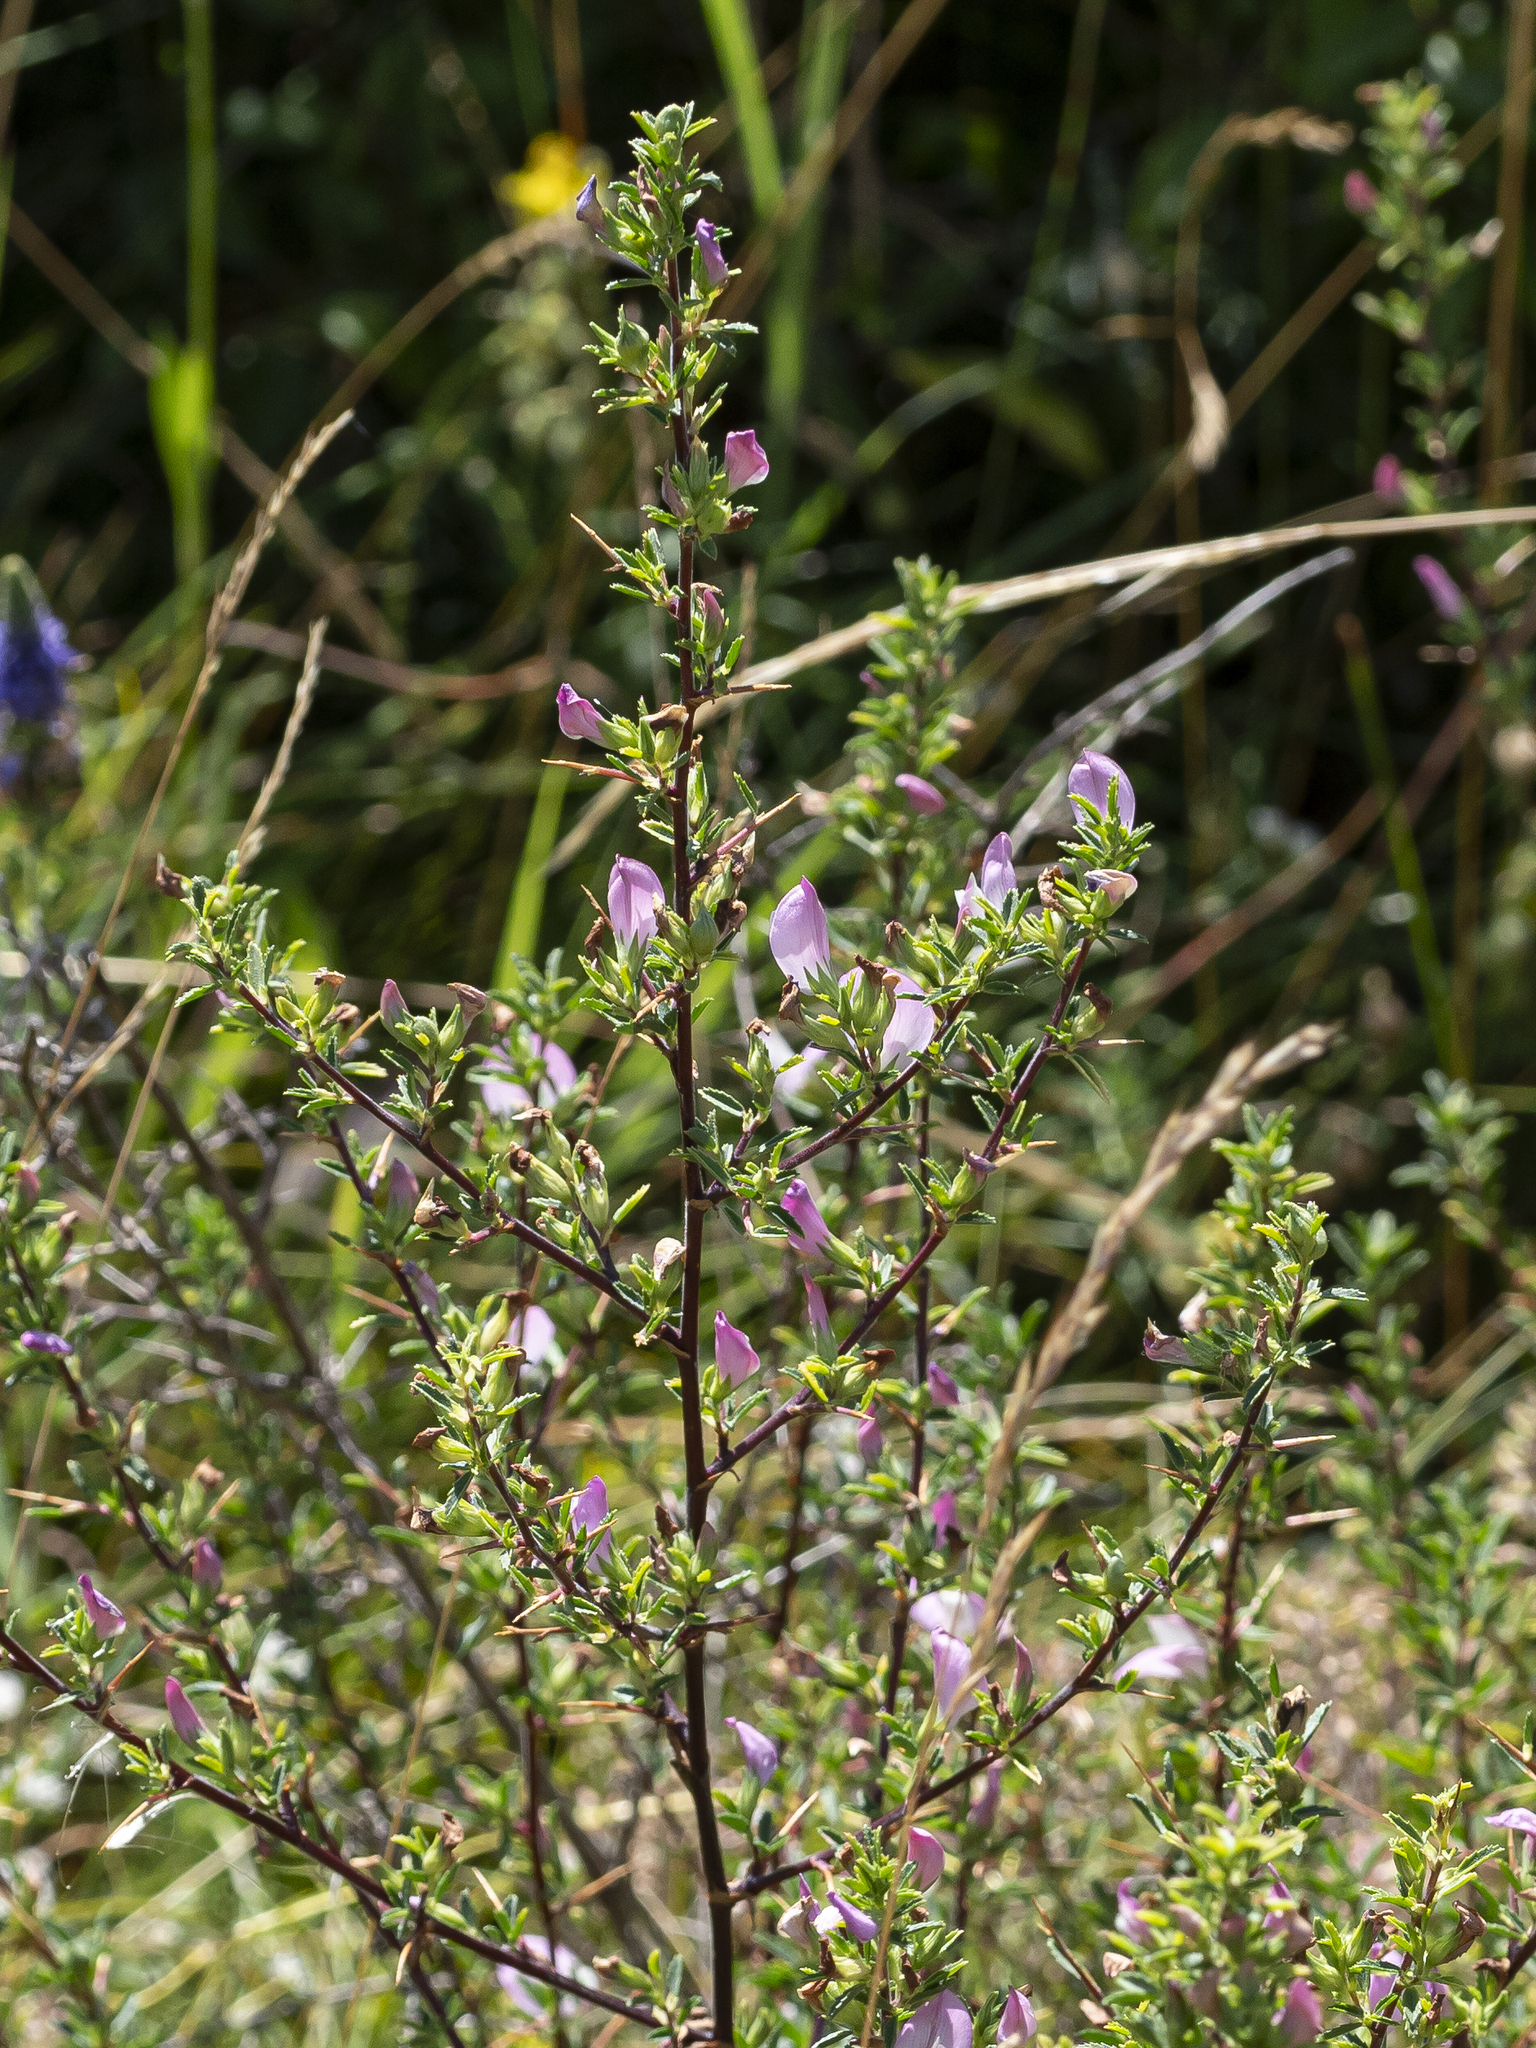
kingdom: Plantae
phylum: Tracheophyta
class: Magnoliopsida
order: Fabales
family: Fabaceae
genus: Ononis
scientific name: Ononis spinosa
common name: Spiny restharrow
